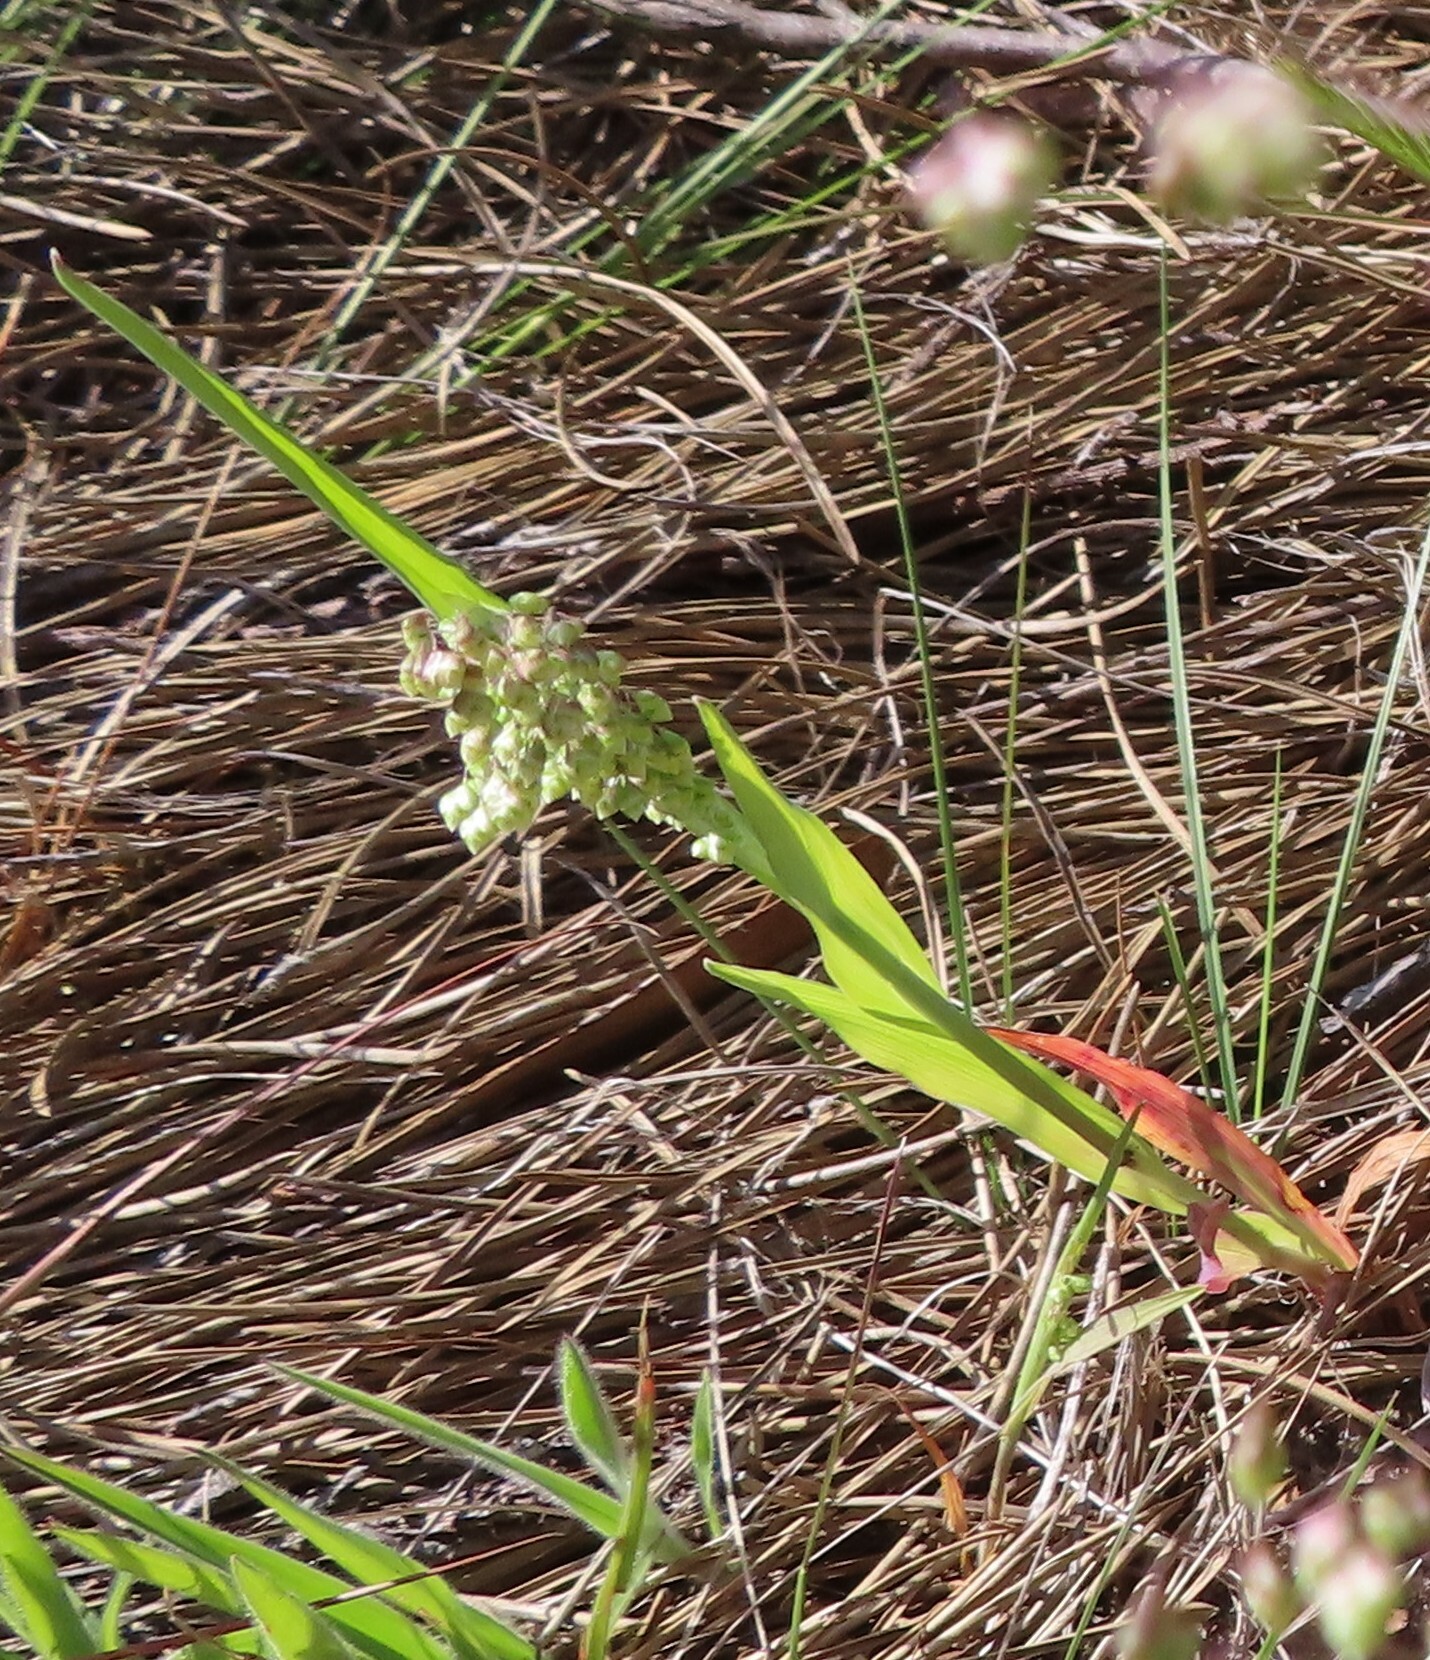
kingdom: Plantae
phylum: Tracheophyta
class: Liliopsida
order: Poales
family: Poaceae
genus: Briza
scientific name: Briza minor
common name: Lesser quaking-grass
